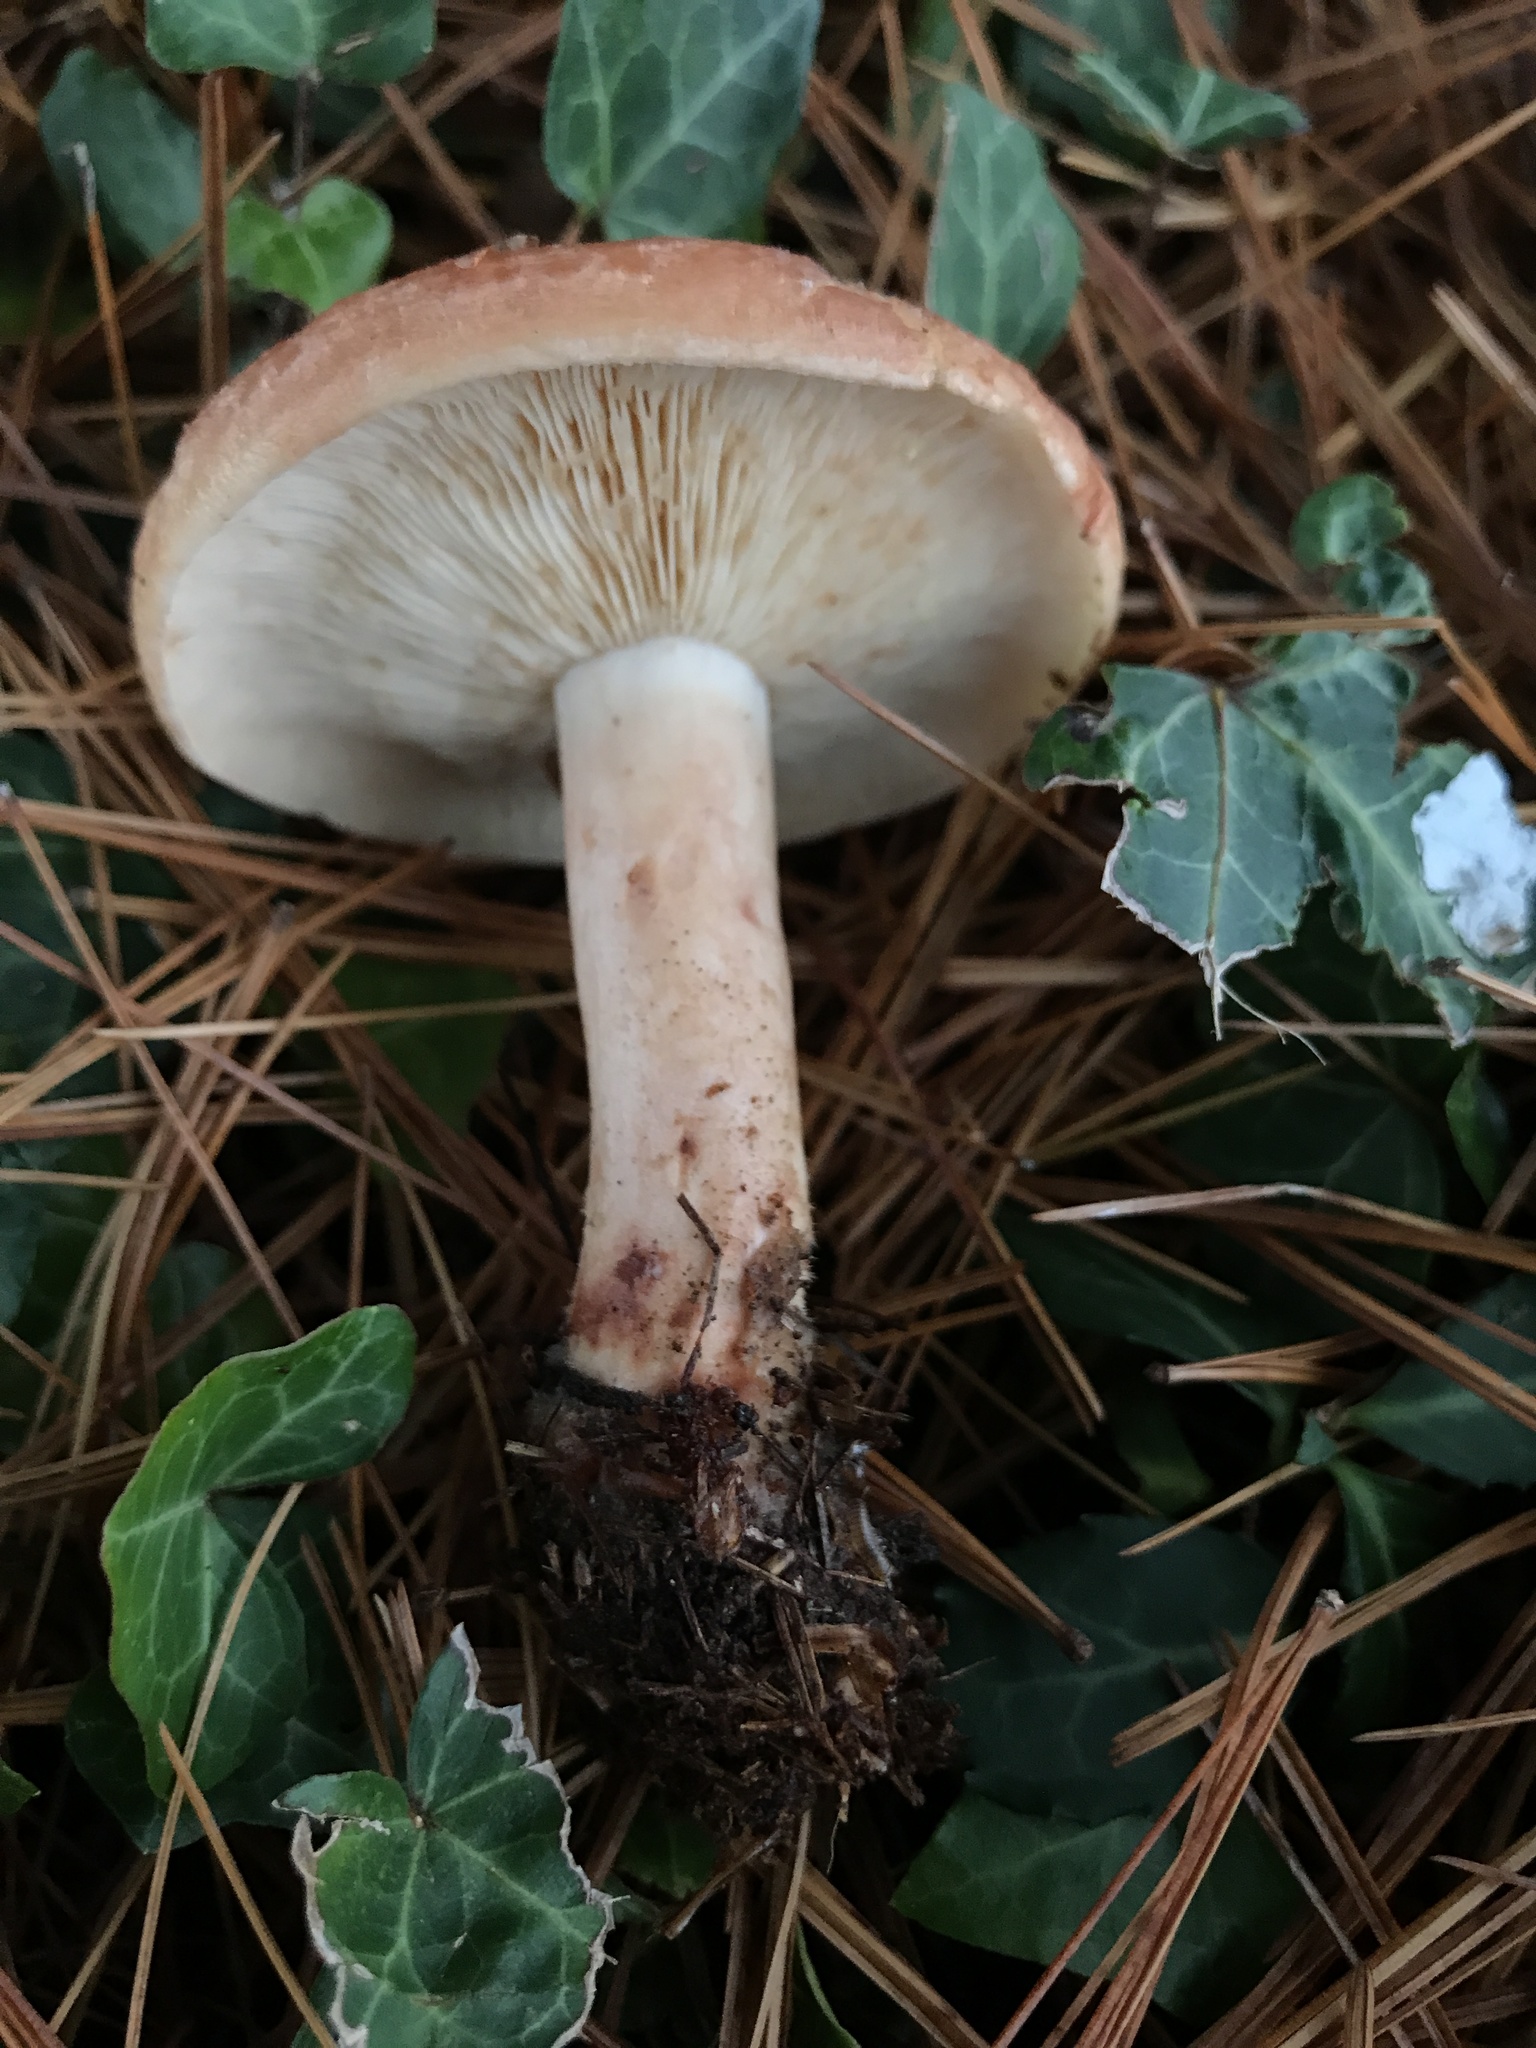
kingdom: Fungi
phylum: Basidiomycota
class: Agaricomycetes
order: Russulales
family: Russulaceae
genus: Lactarius
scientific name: Lactarius vinaceorufescens
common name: Yellow-latex milkcap
